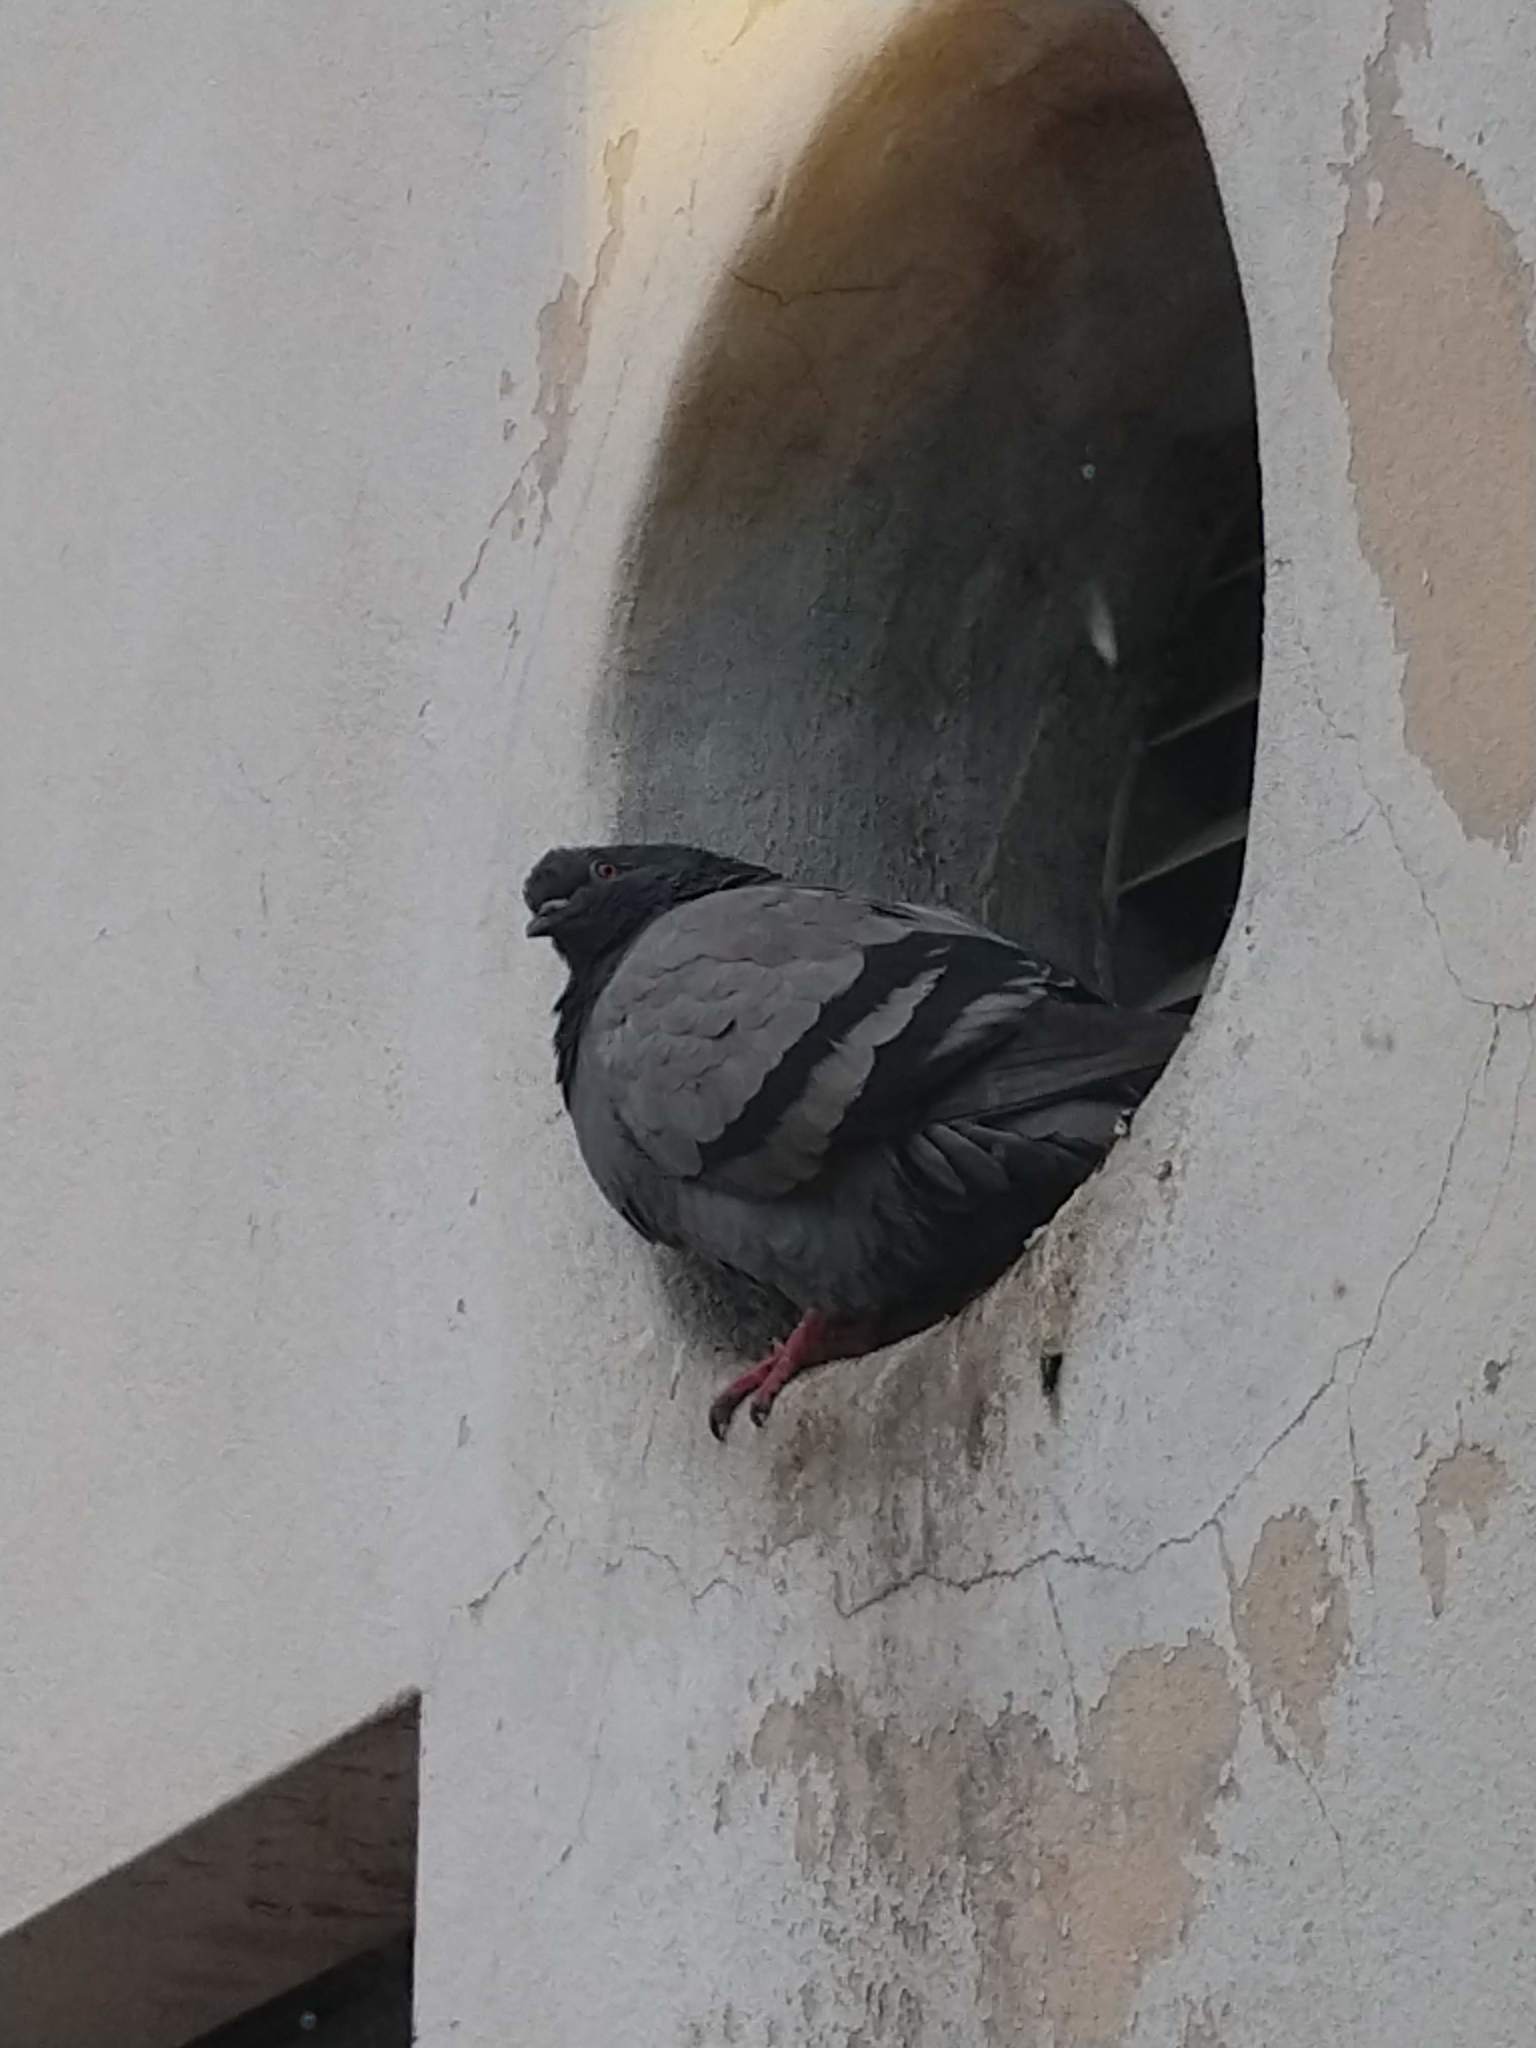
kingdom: Animalia
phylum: Chordata
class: Aves
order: Columbiformes
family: Columbidae
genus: Columba
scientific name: Columba livia
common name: Rock pigeon
